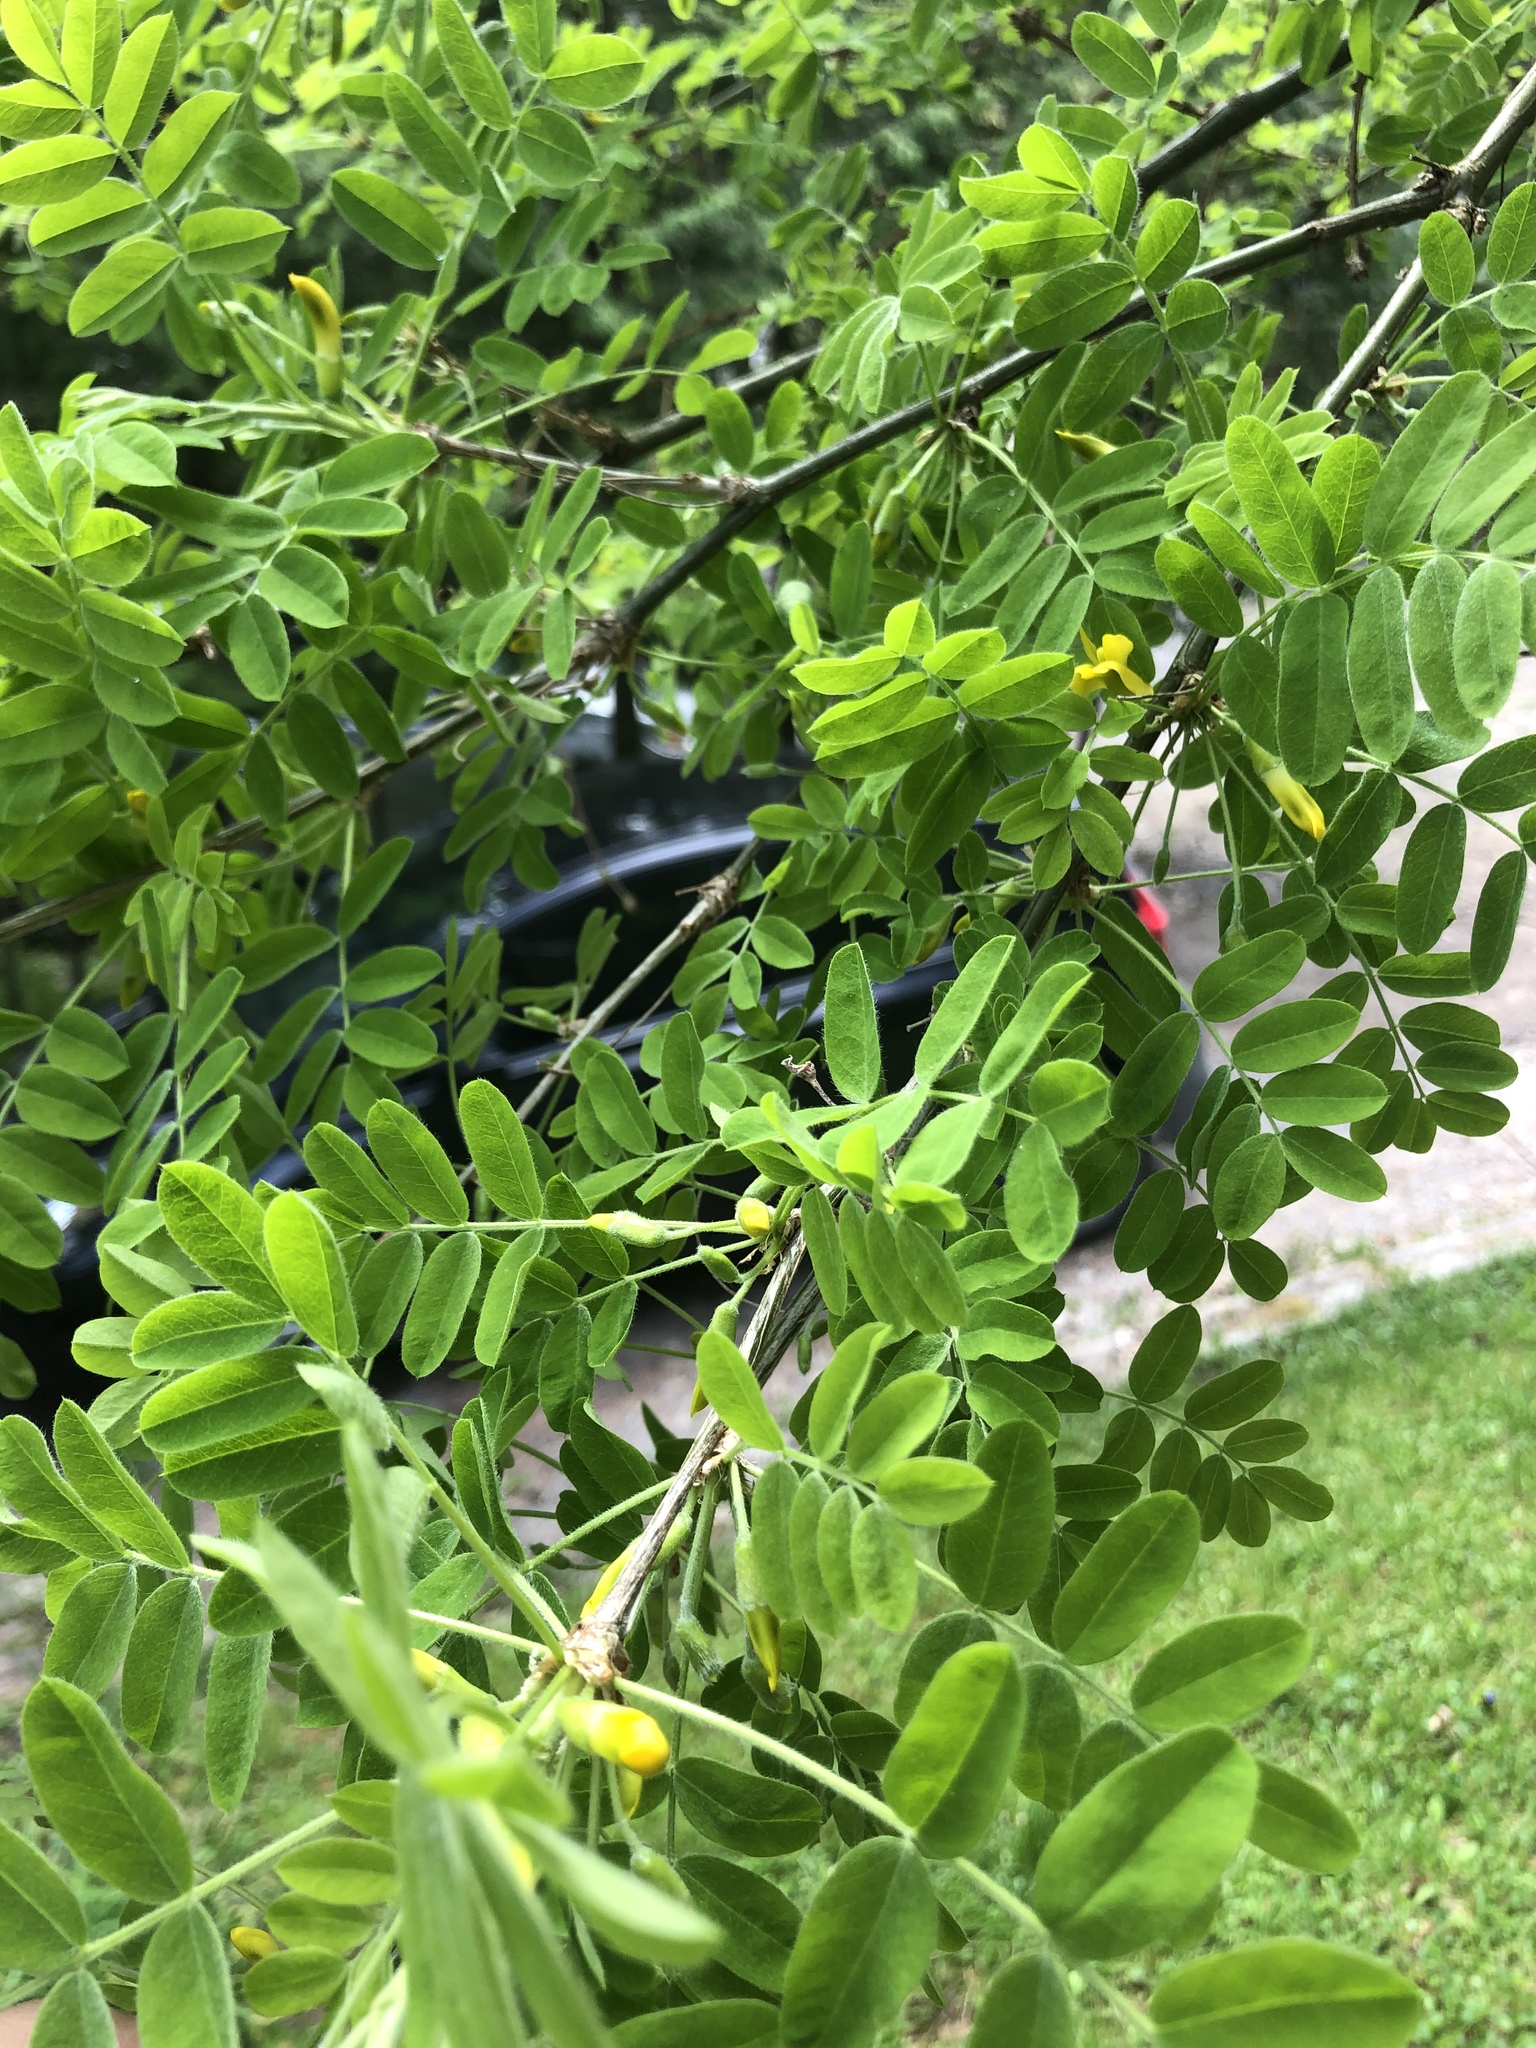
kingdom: Plantae
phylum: Tracheophyta
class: Magnoliopsida
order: Fabales
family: Fabaceae
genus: Caragana
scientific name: Caragana arborescens
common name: Siberian peashrub
